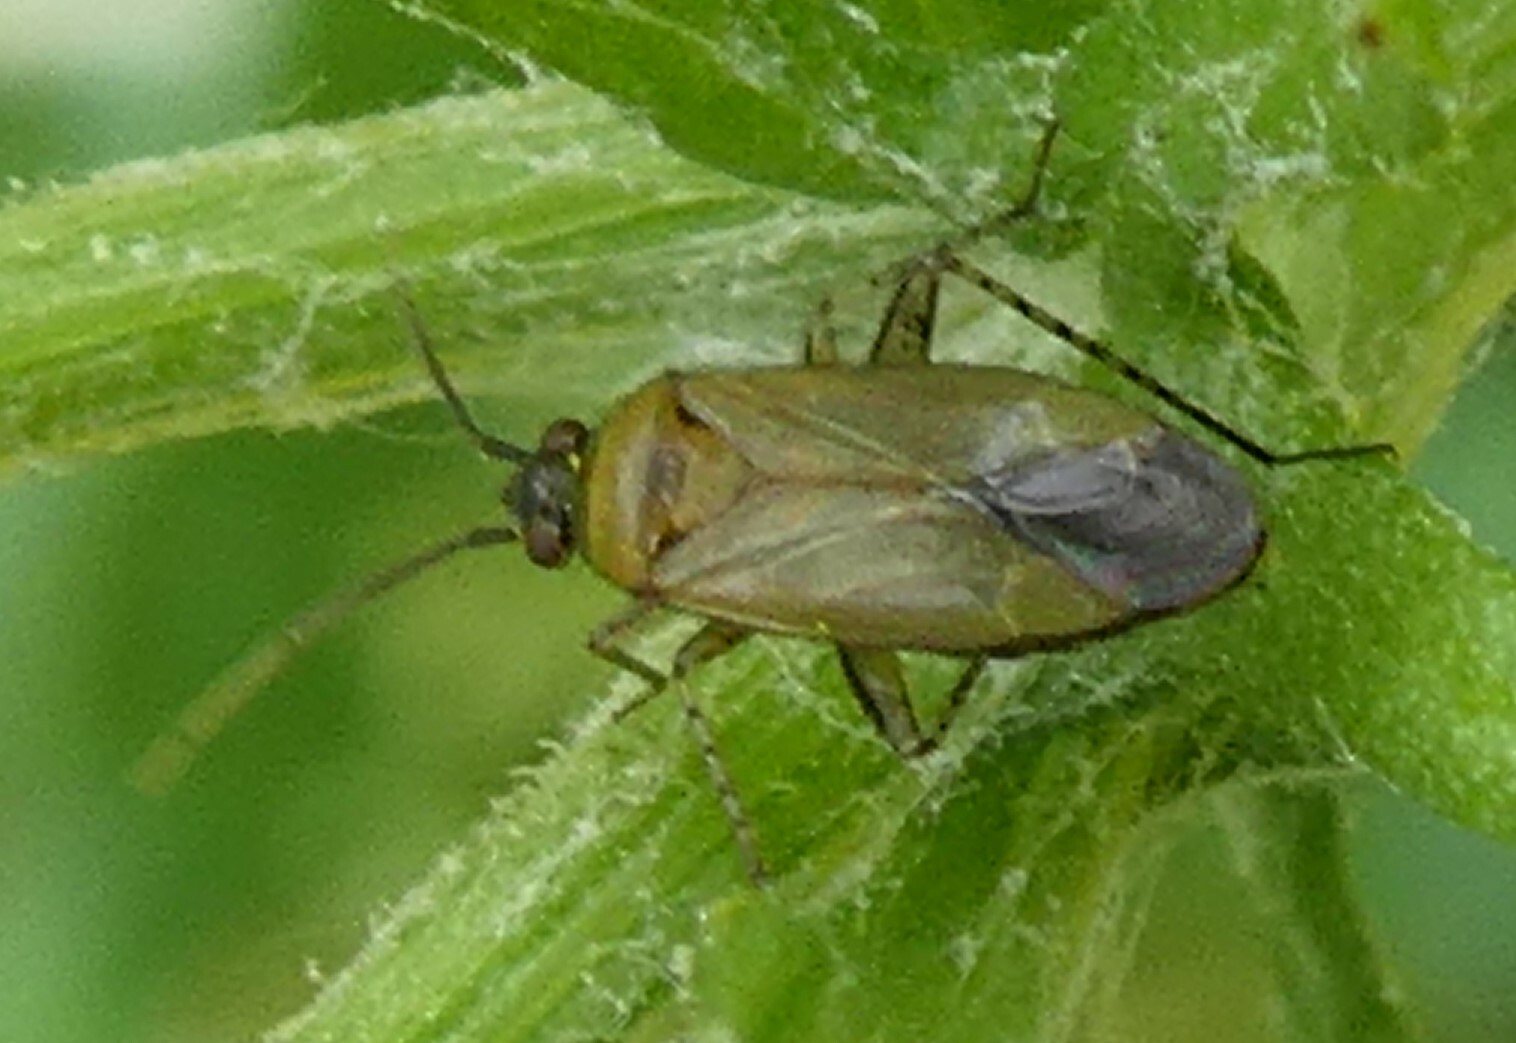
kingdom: Animalia
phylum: Arthropoda
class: Insecta
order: Hemiptera
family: Miridae
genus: Plagiognathus
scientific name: Plagiognathus arbustorum
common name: Plant bug
